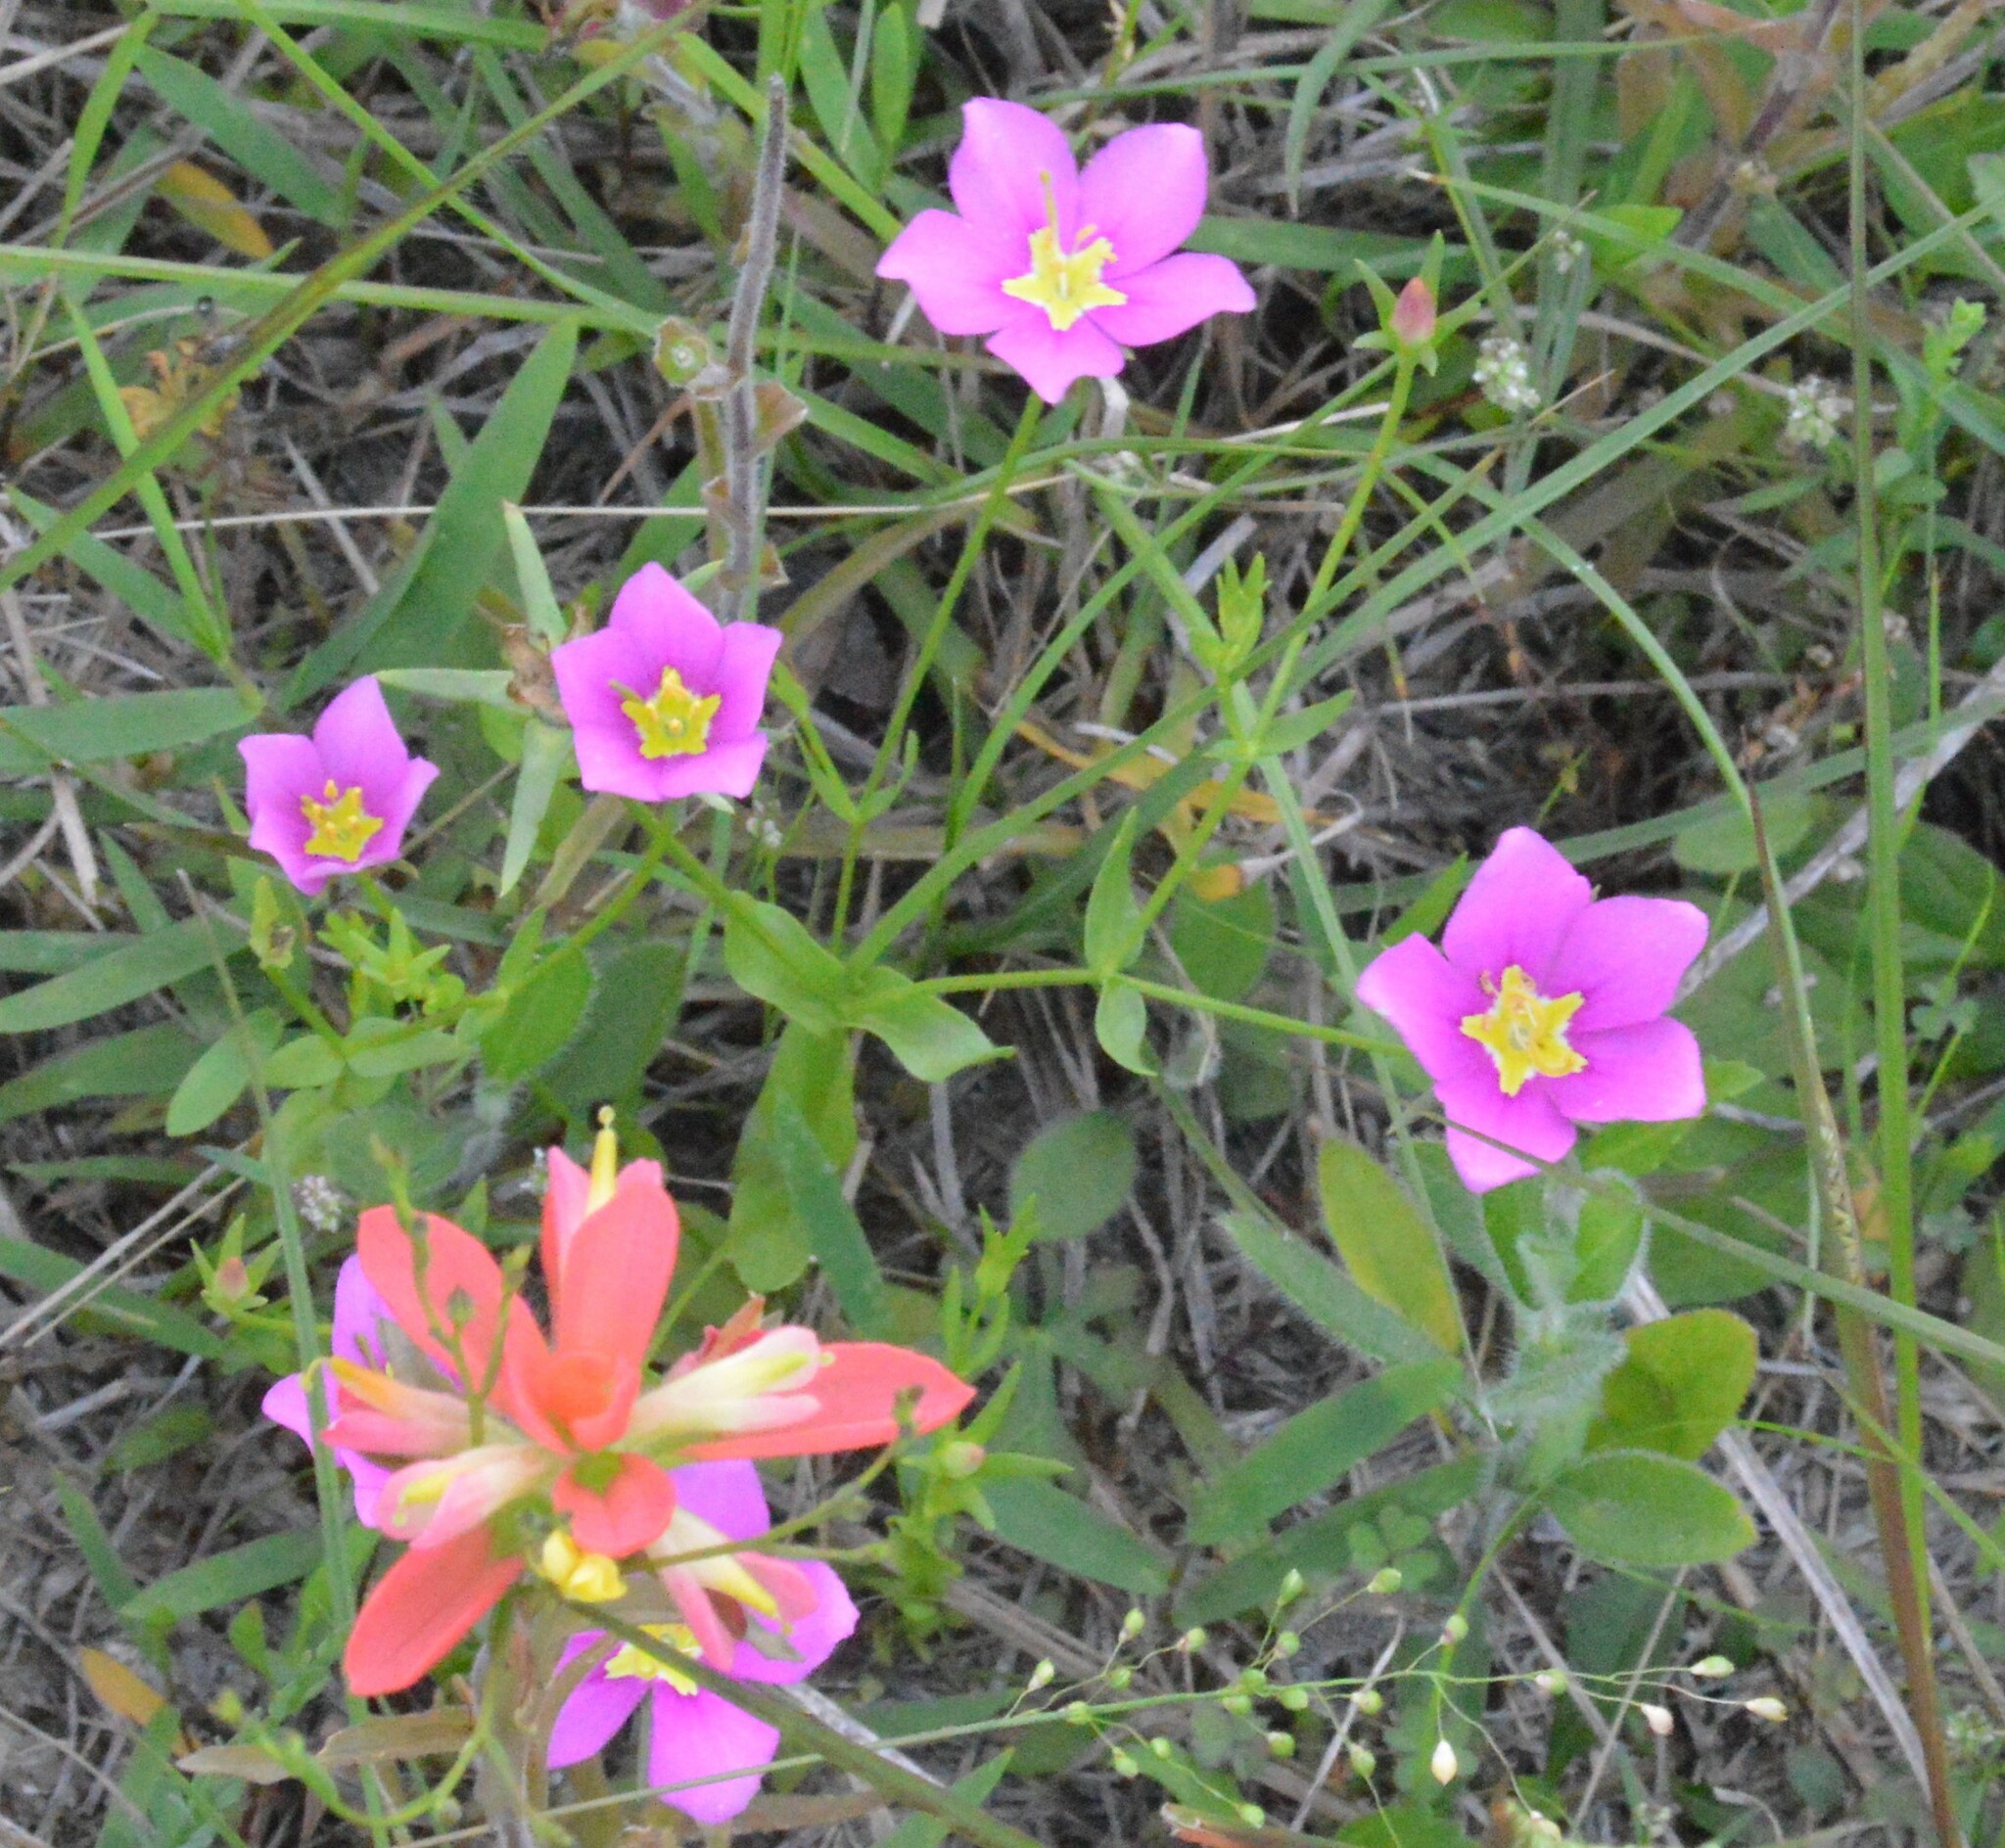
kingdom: Plantae
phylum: Tracheophyta
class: Magnoliopsida
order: Gentianales
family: Gentianaceae
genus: Sabatia
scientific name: Sabatia campestris
